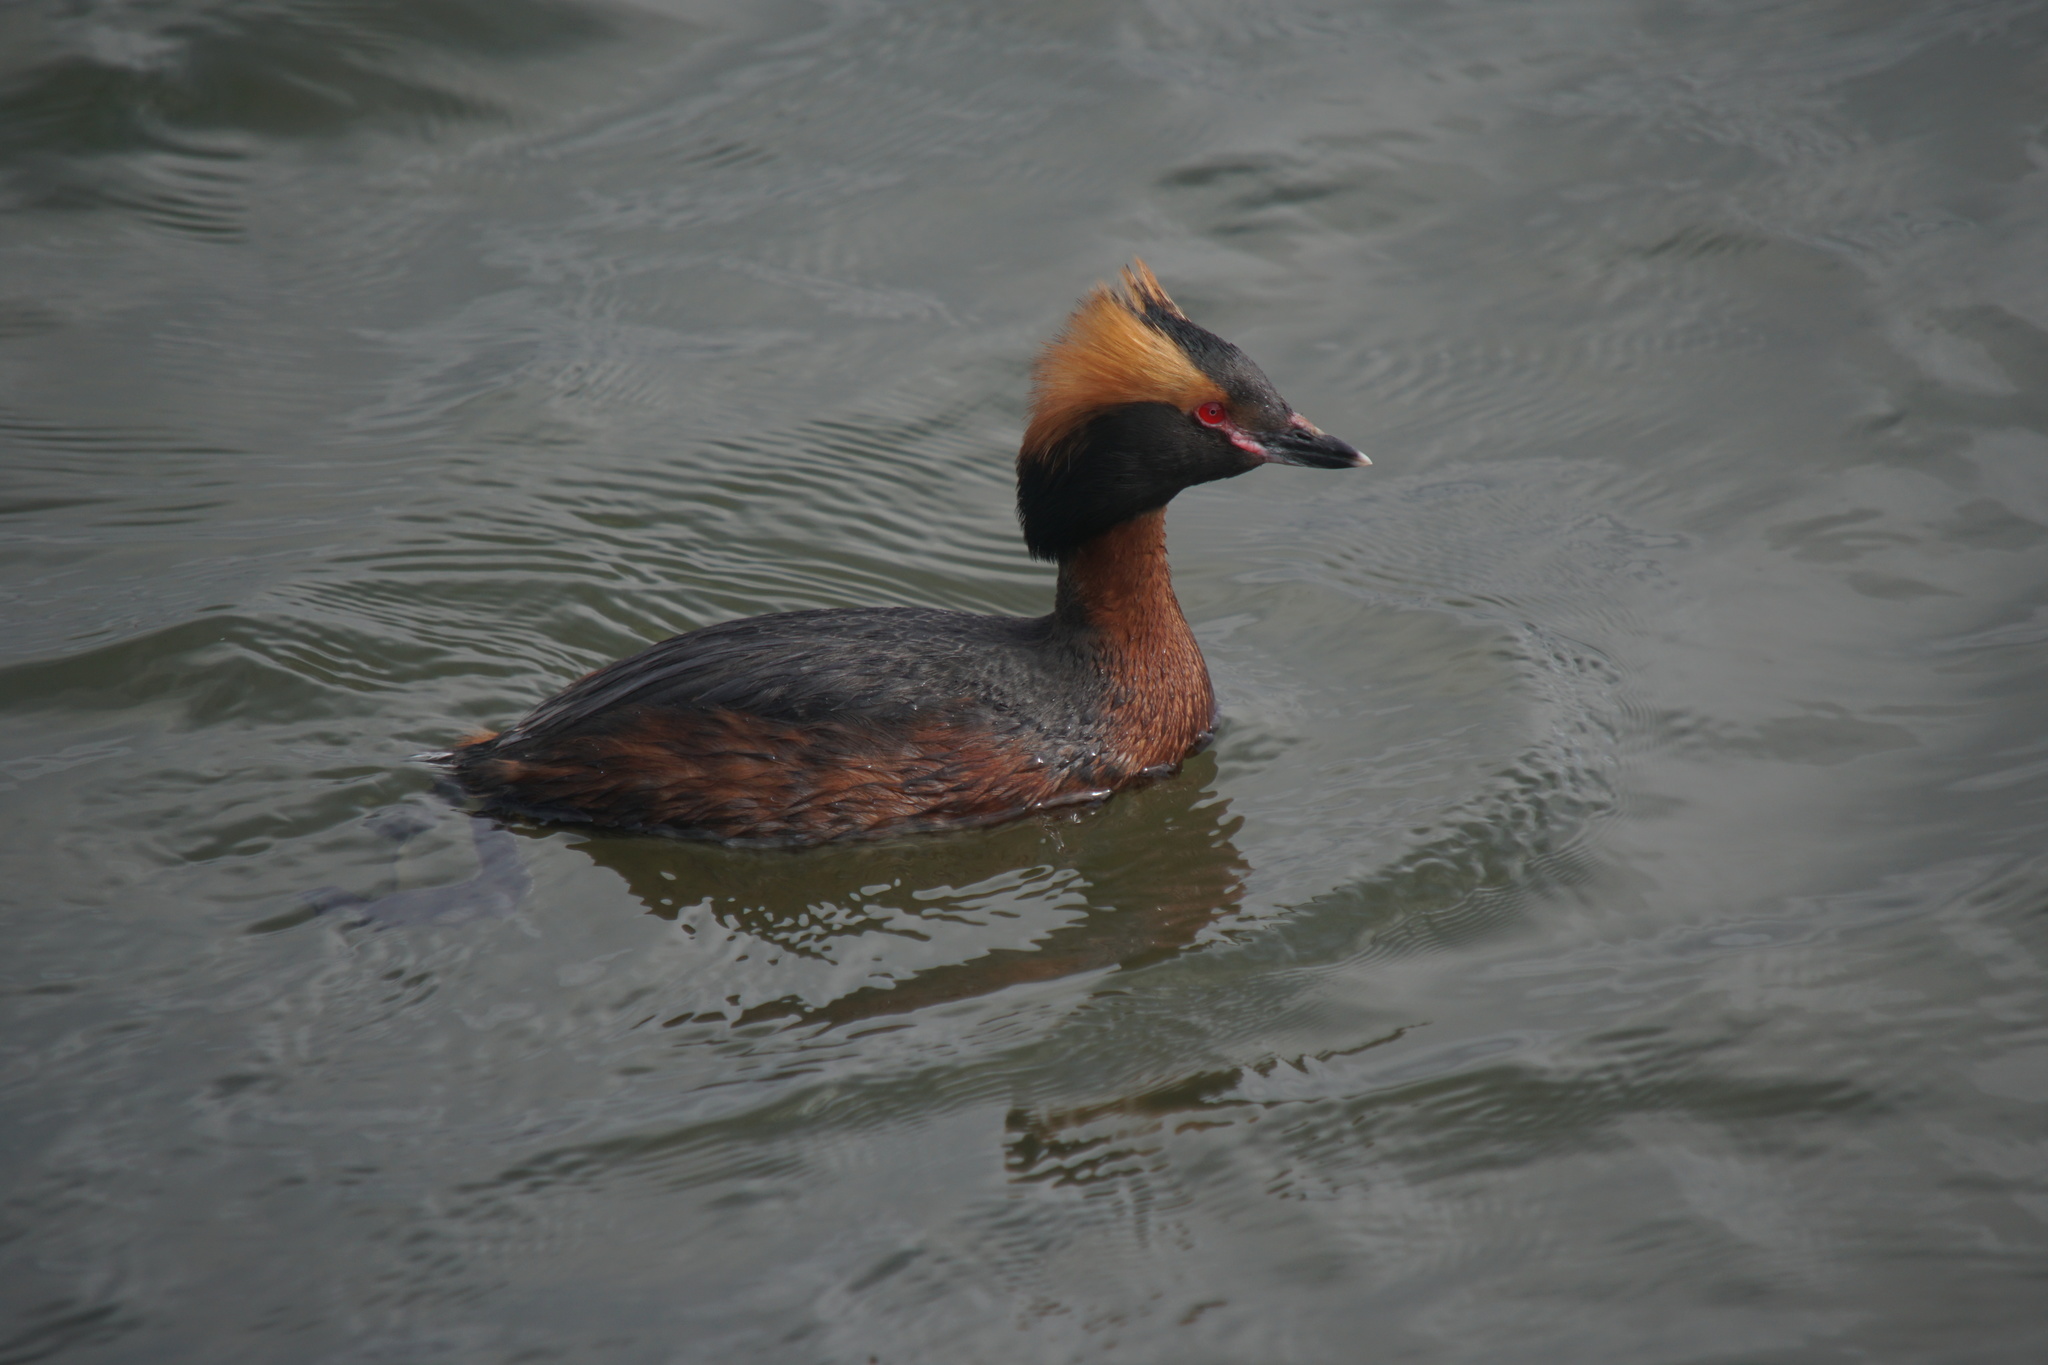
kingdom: Animalia
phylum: Chordata
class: Aves
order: Podicipediformes
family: Podicipedidae
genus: Podiceps
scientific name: Podiceps auritus
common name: Horned grebe
